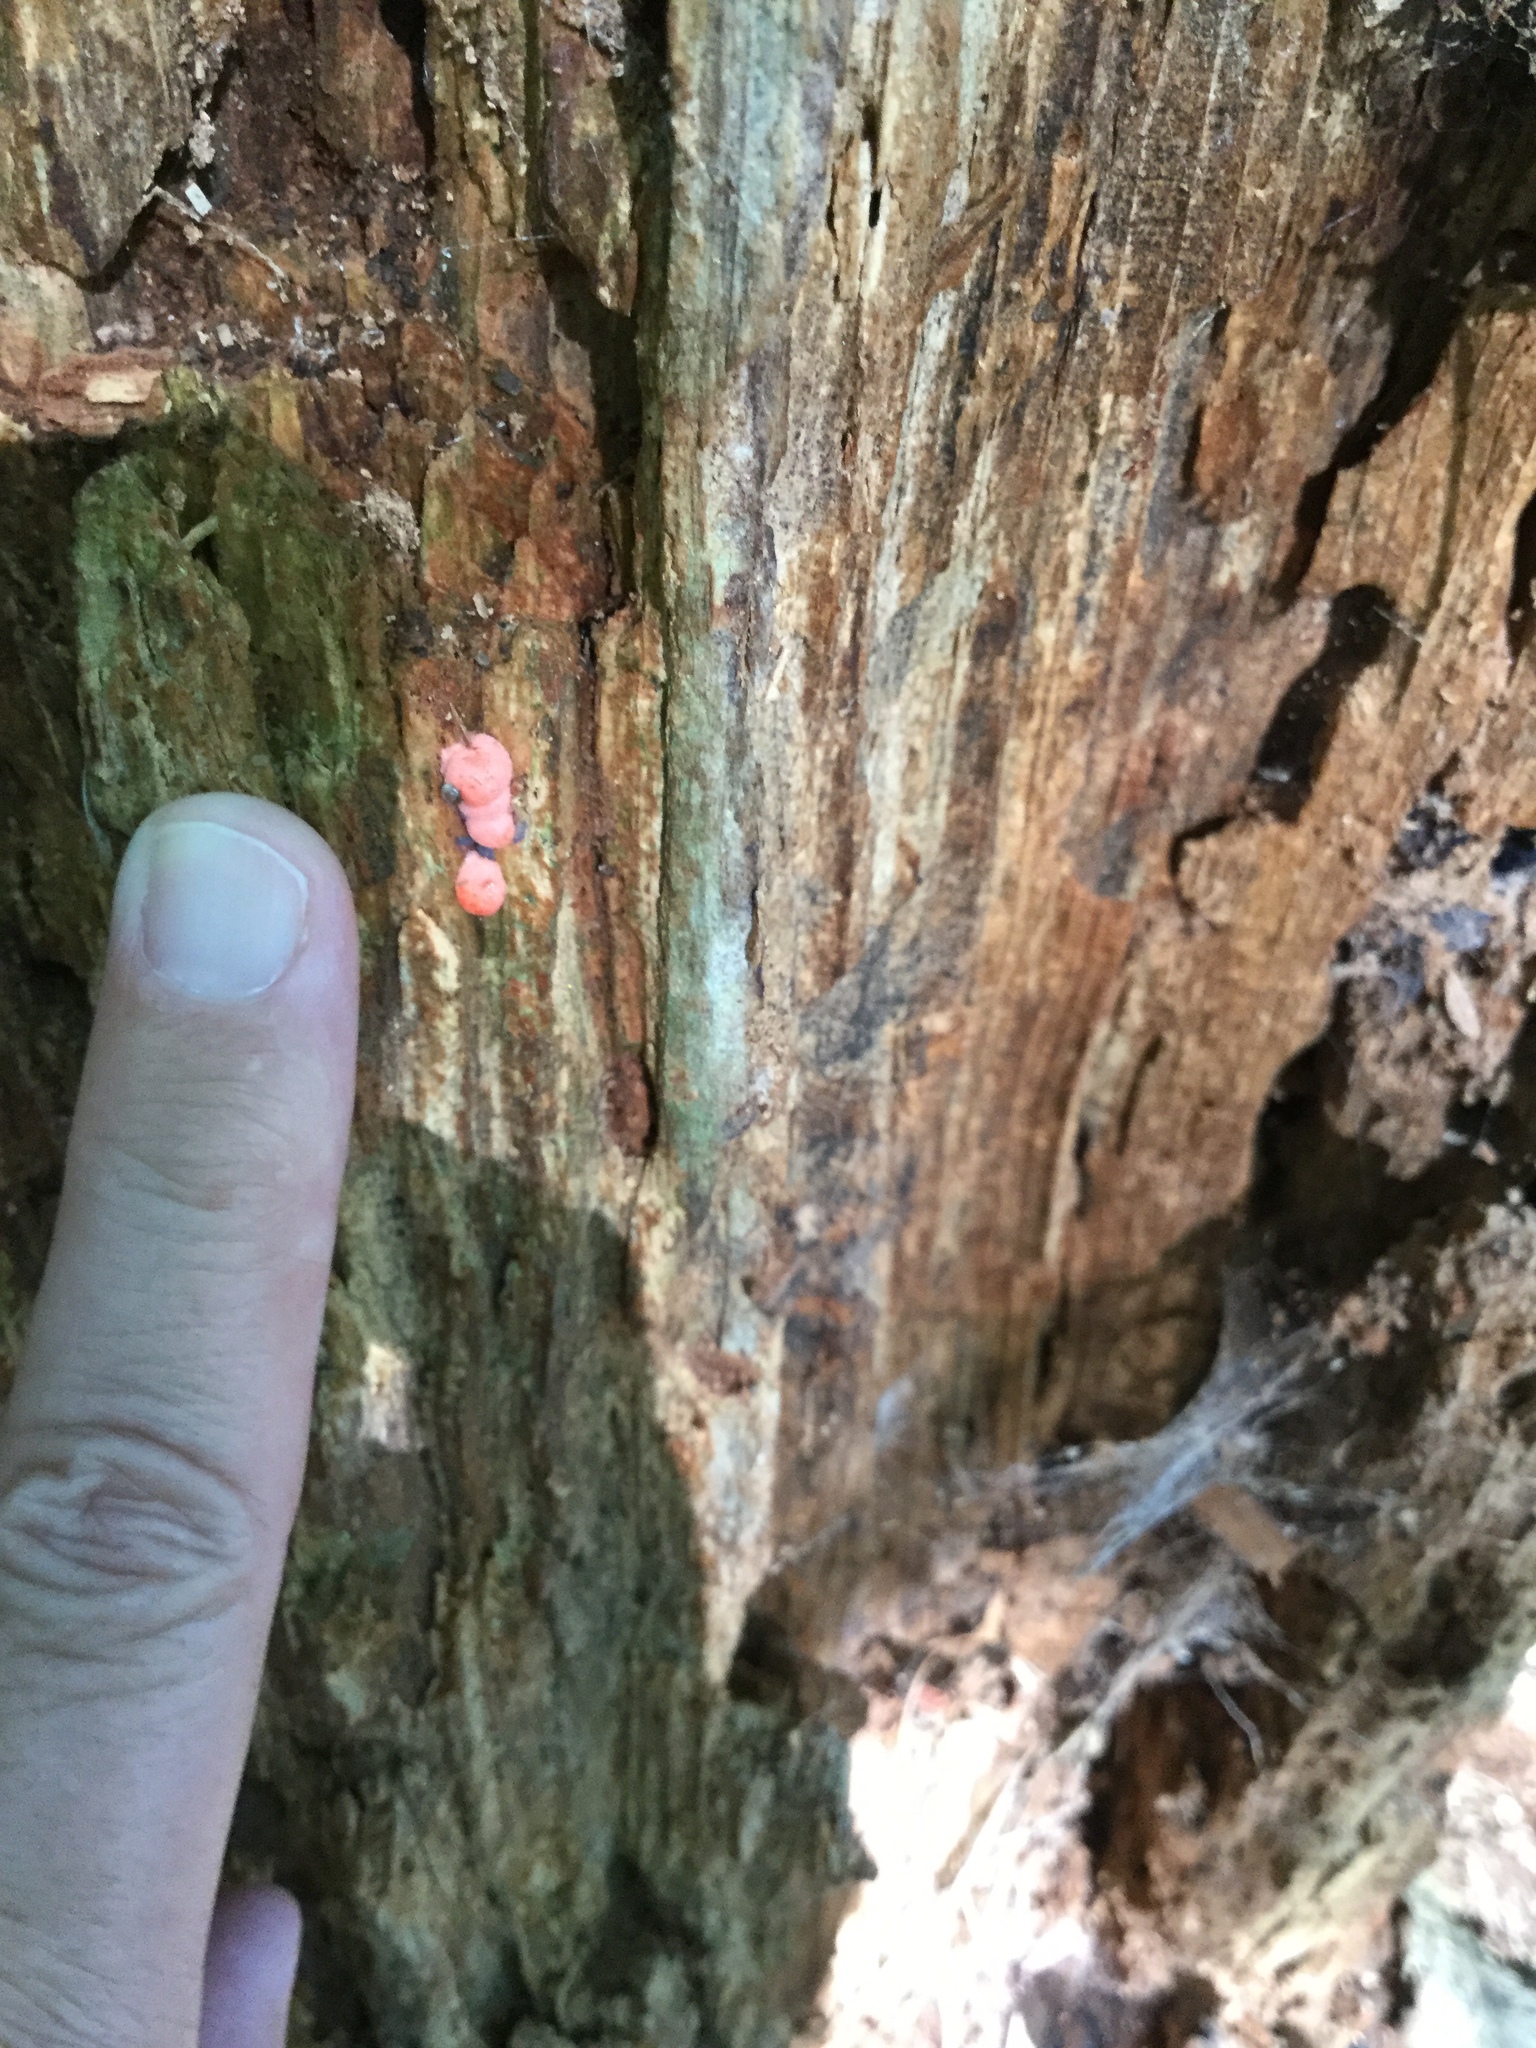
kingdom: Protozoa
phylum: Mycetozoa
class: Myxomycetes
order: Cribrariales
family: Tubiferaceae
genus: Lycogala
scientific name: Lycogala epidendrum
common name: Wolf's milk
